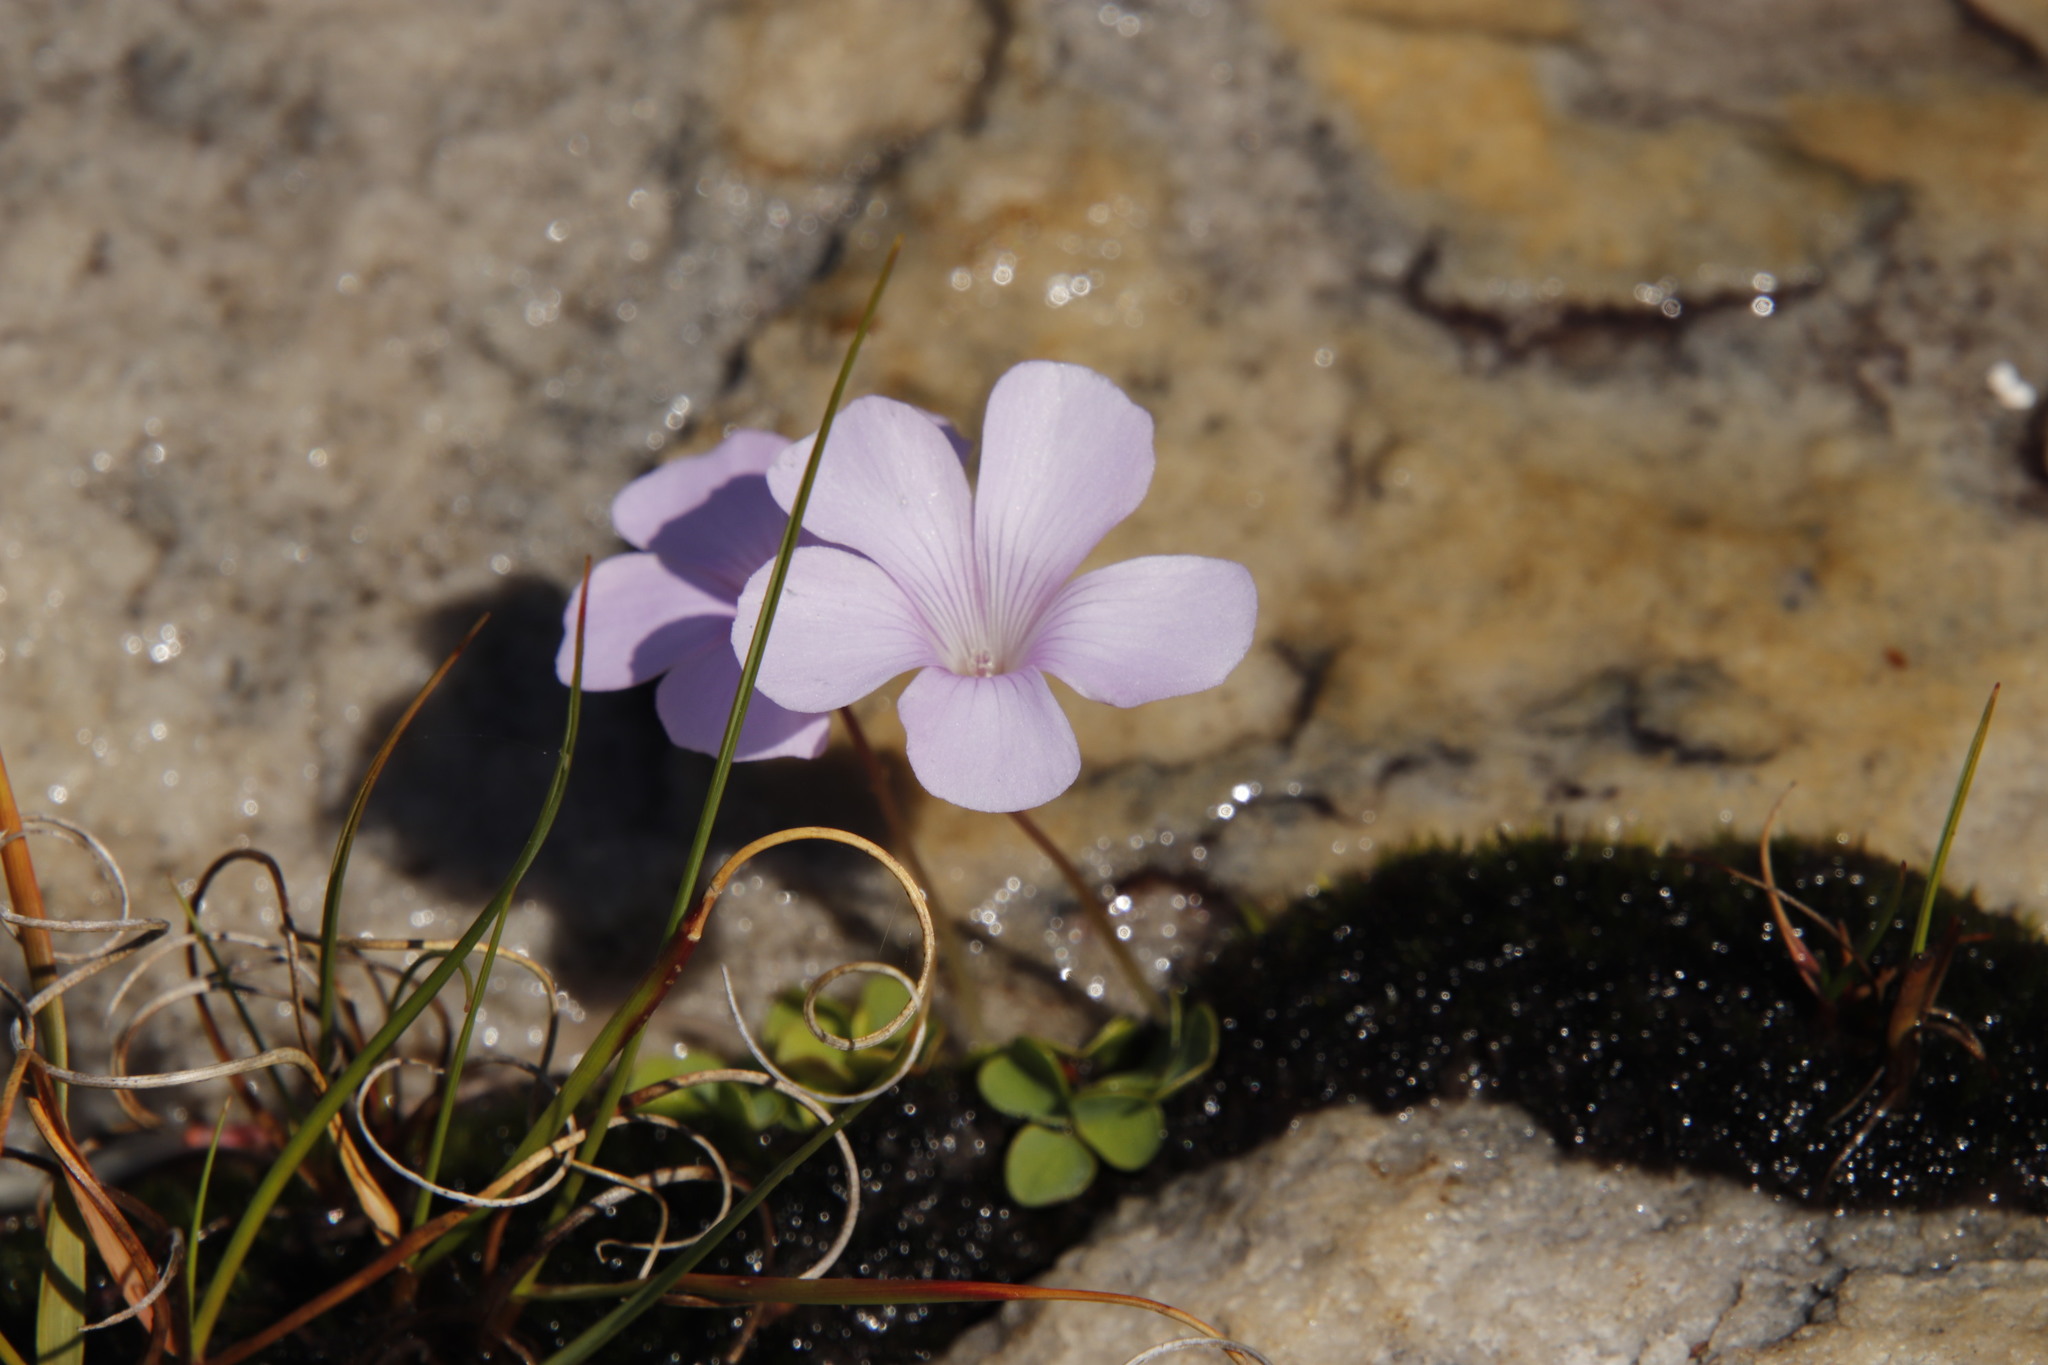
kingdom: Plantae
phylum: Tracheophyta
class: Magnoliopsida
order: Oxalidales
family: Oxalidaceae
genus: Oxalis
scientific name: Oxalis commutata
